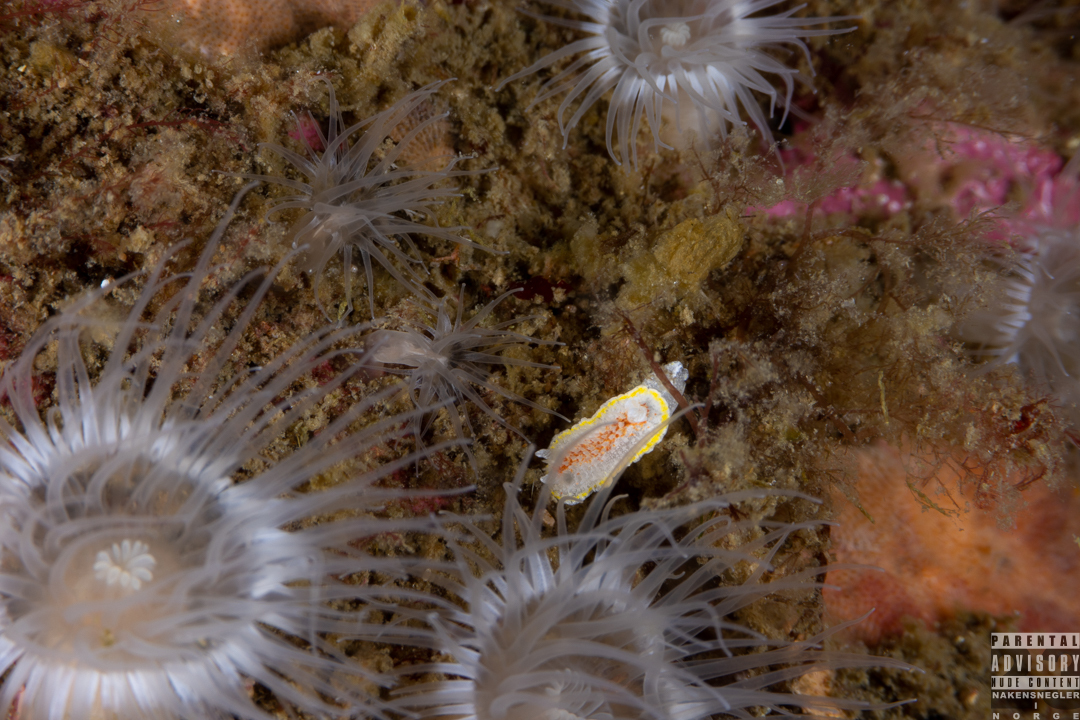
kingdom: Animalia
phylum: Mollusca
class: Gastropoda
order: Nudibranchia
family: Calycidorididae
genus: Diaphorodoris
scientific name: Diaphorodoris luteocincta
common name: Fried egg nudibranch
